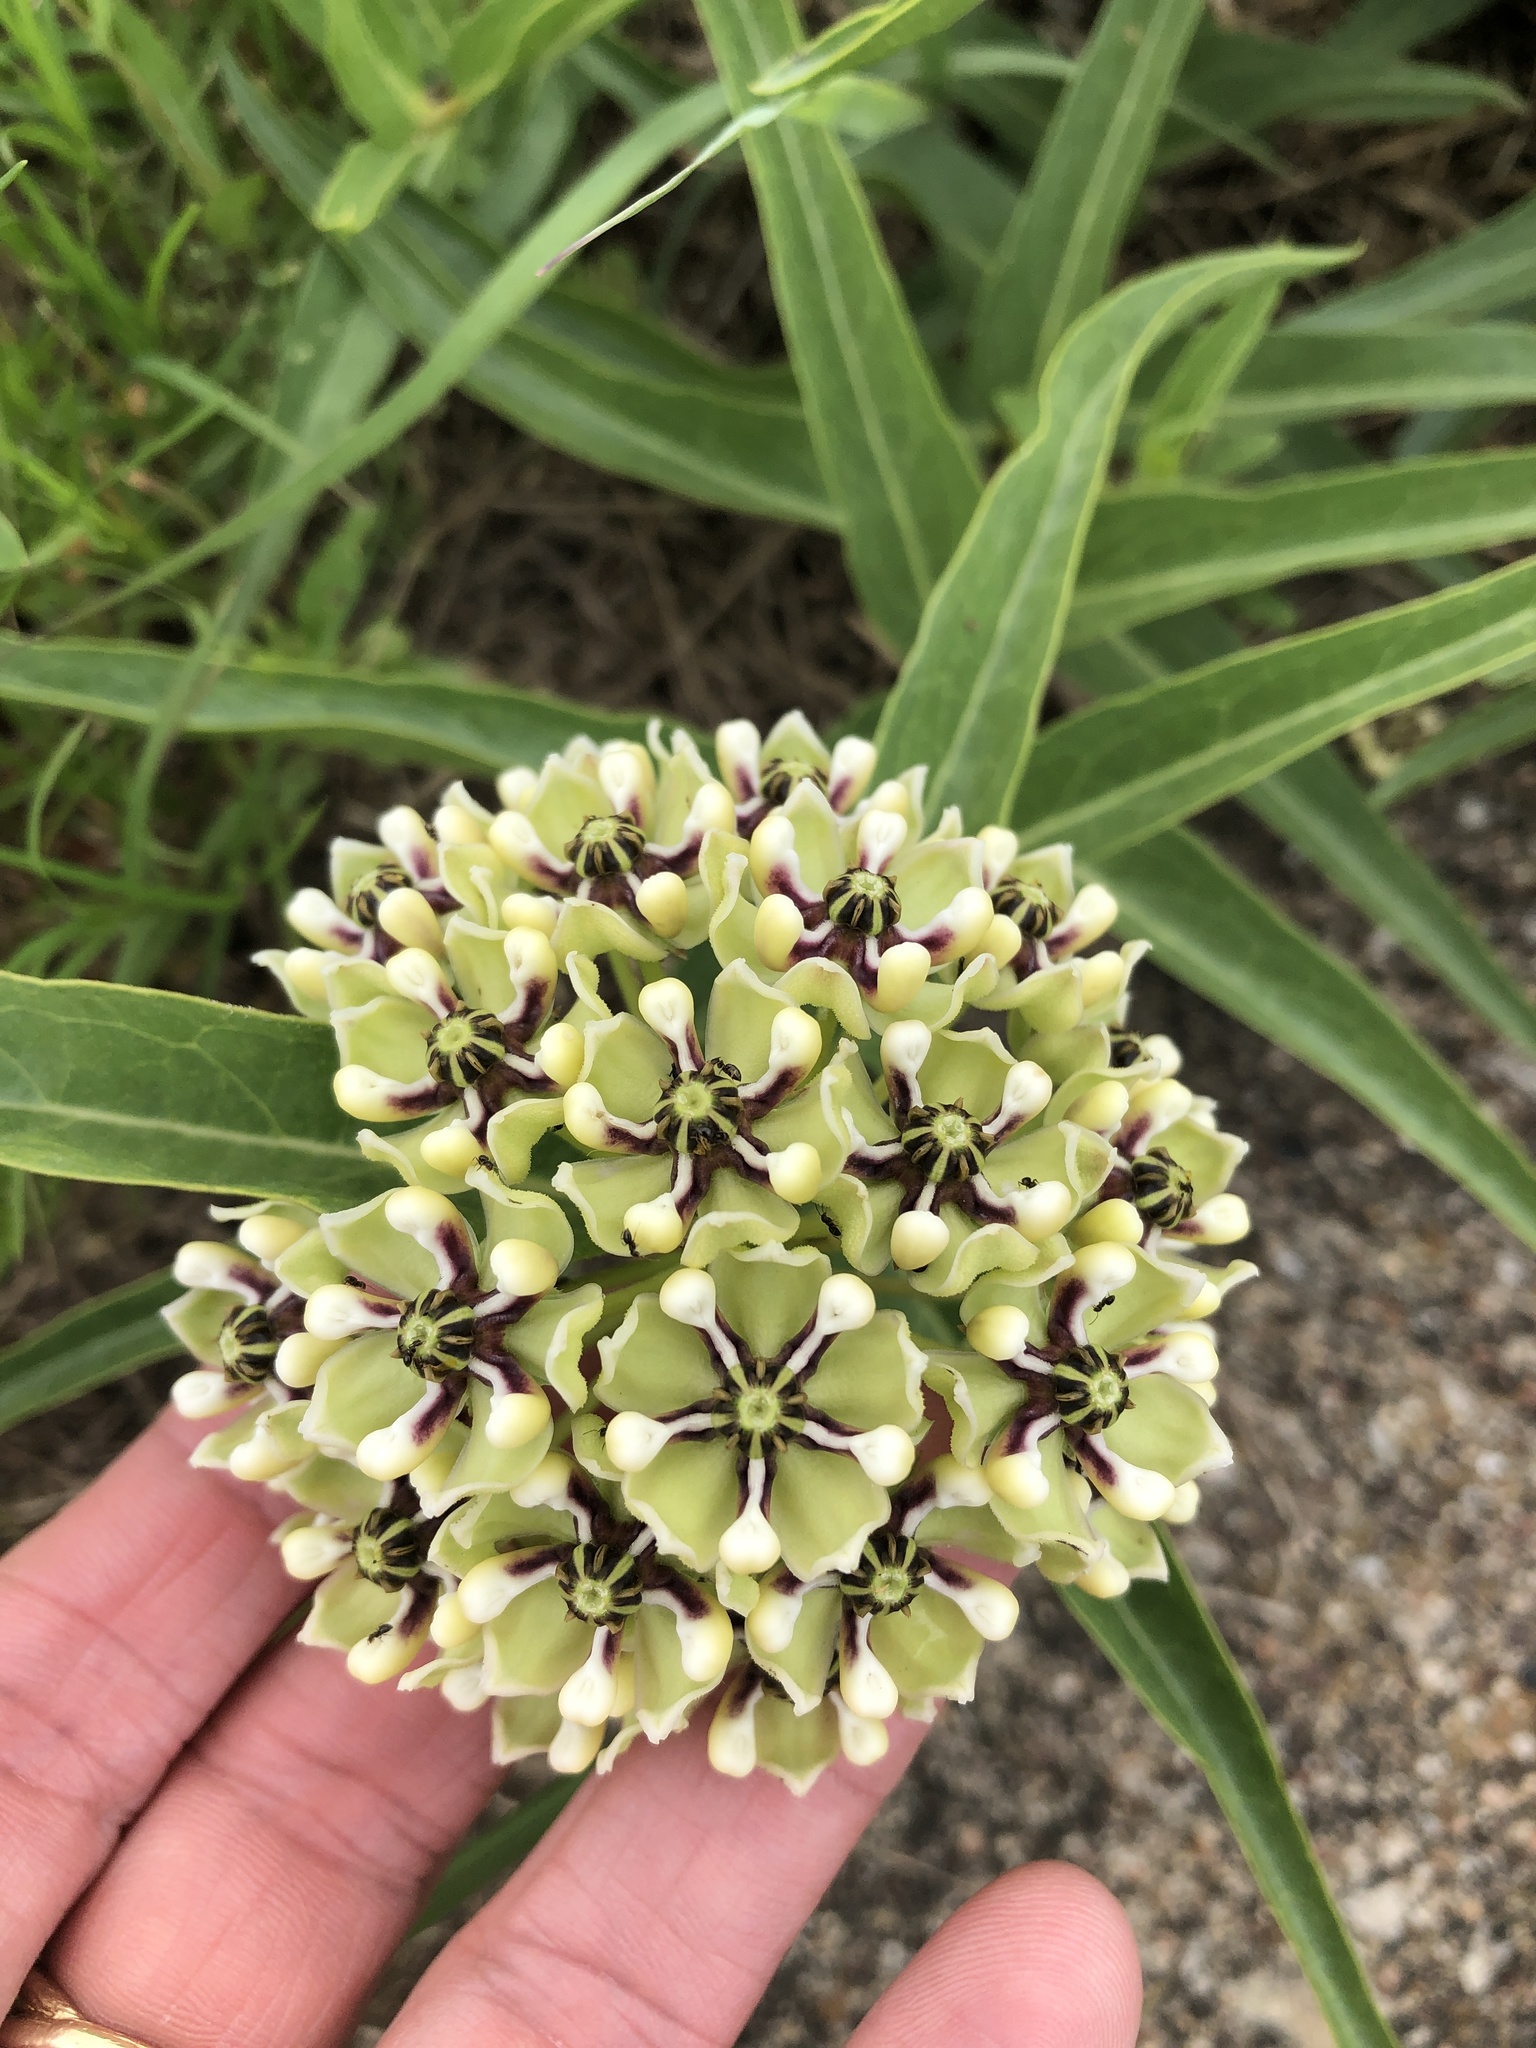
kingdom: Plantae
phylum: Tracheophyta
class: Magnoliopsida
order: Gentianales
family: Apocynaceae
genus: Asclepias
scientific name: Asclepias asperula
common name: Antelope horns
